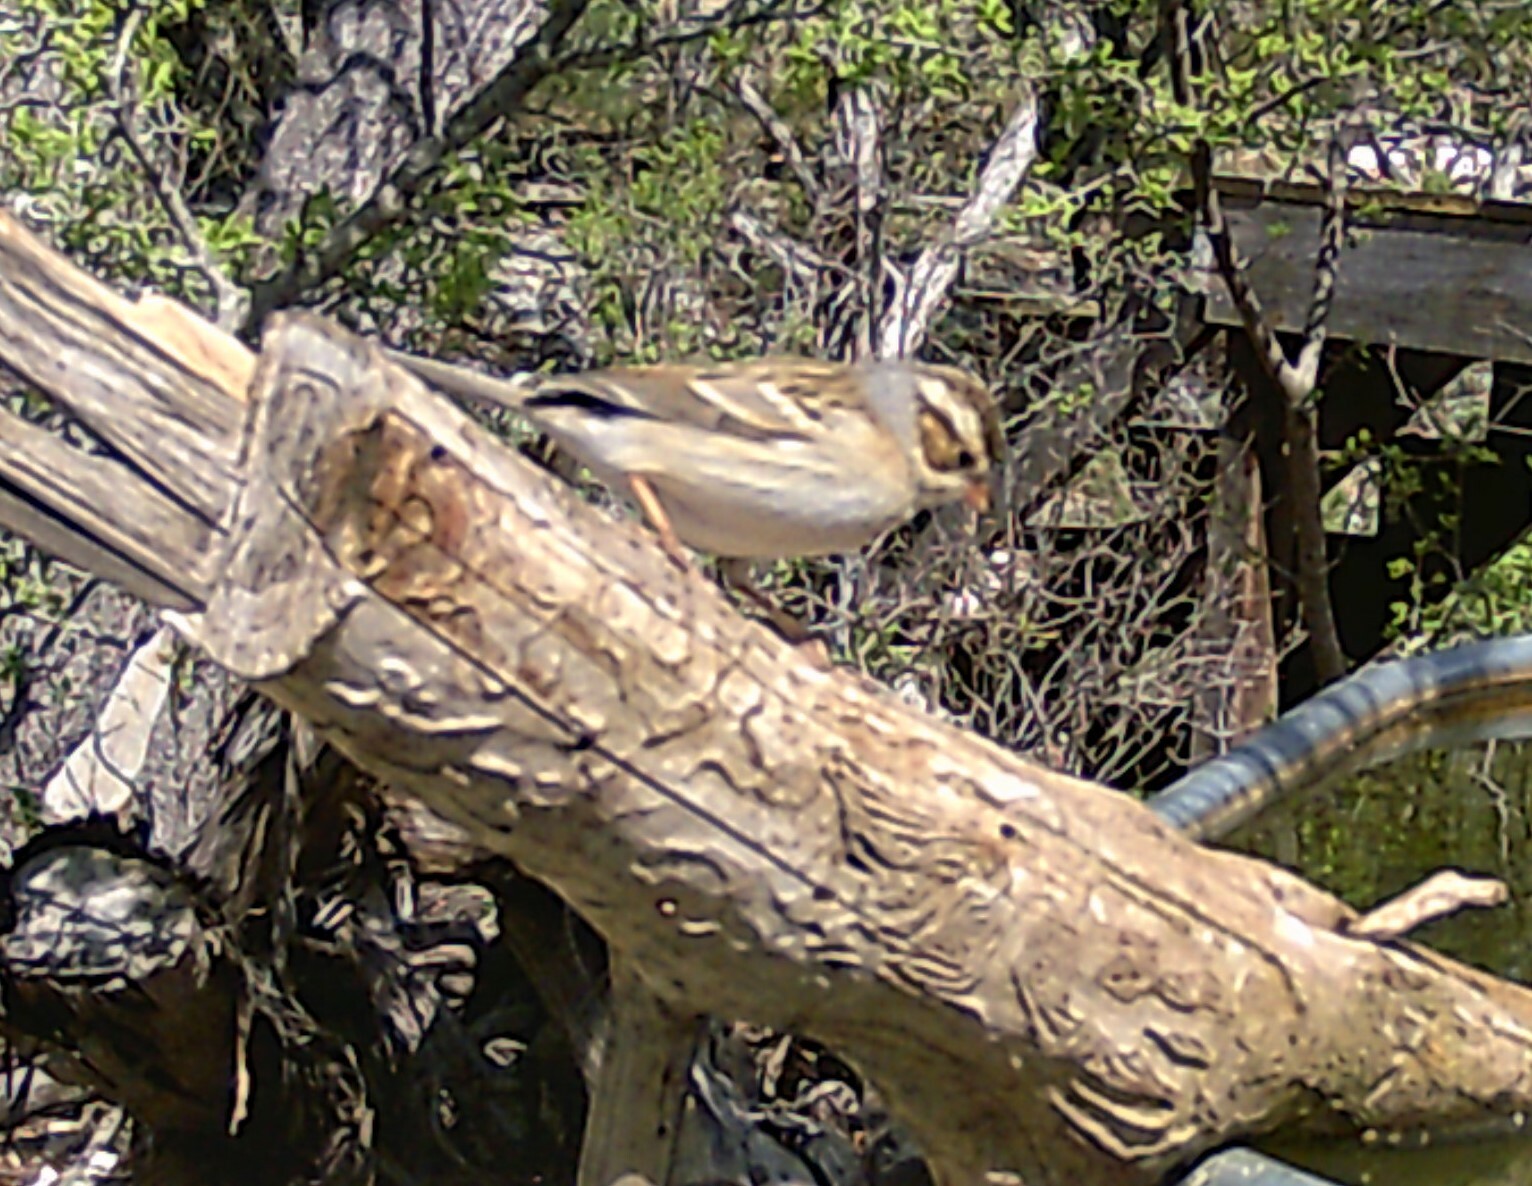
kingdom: Animalia
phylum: Chordata
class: Aves
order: Passeriformes
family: Passerellidae
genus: Spizella
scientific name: Spizella pallida
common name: Clay-colored sparrow
